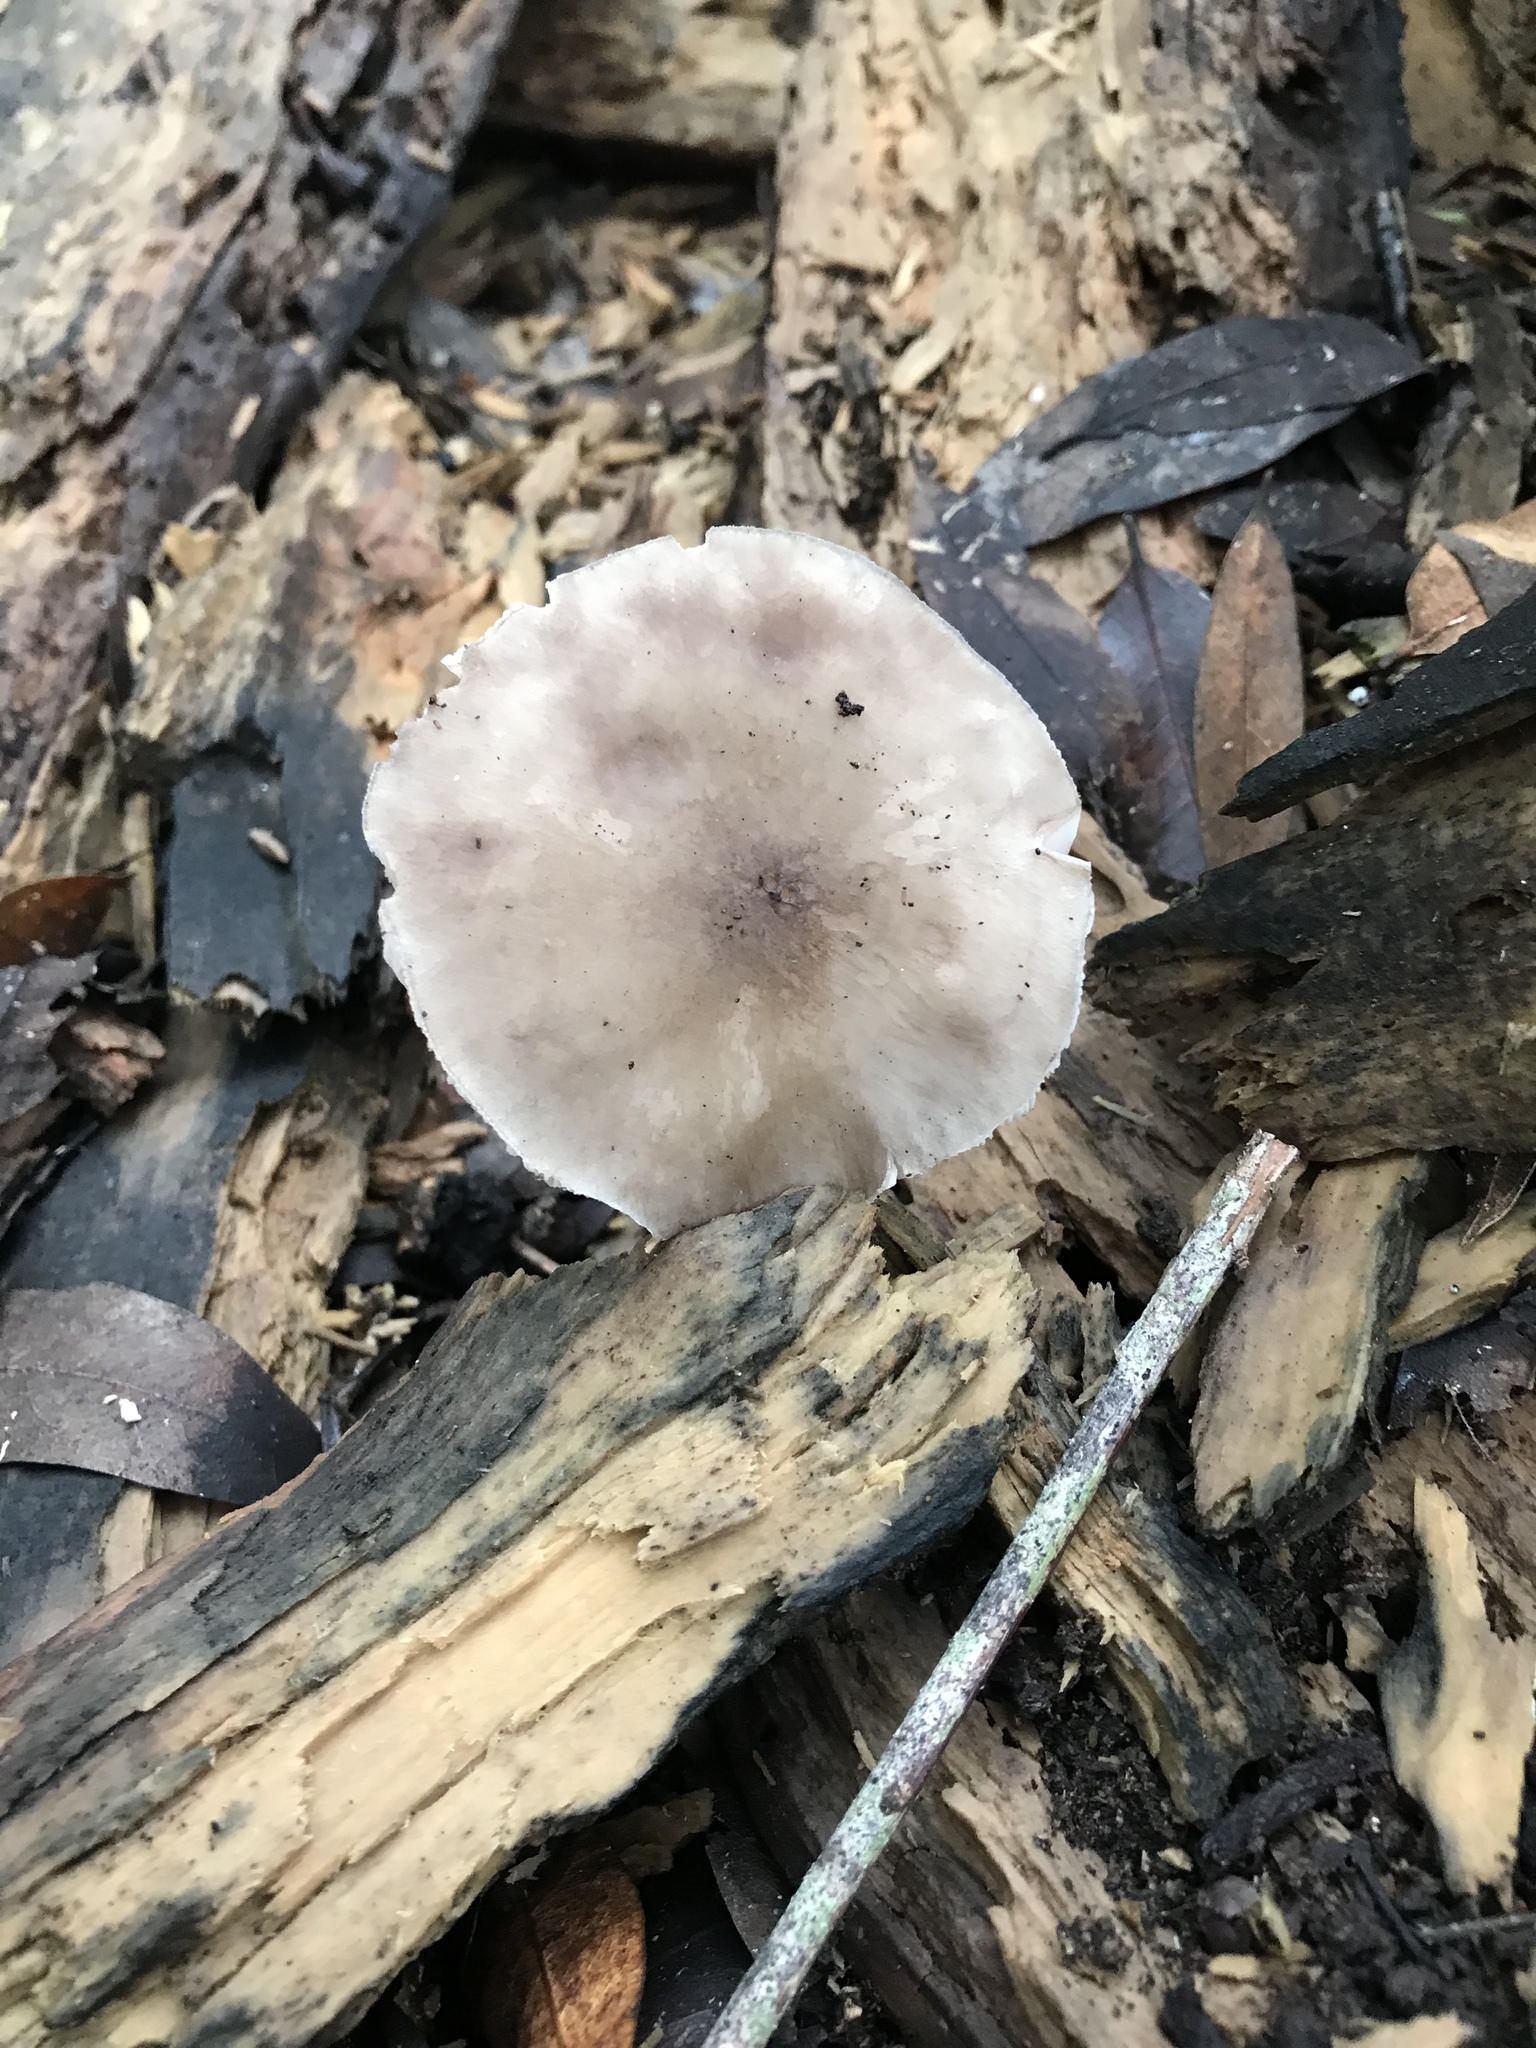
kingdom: Fungi
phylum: Basidiomycota
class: Agaricomycetes
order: Agaricales
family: Pluteaceae
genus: Pluteus
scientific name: Pluteus cervinus
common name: Deer shield
